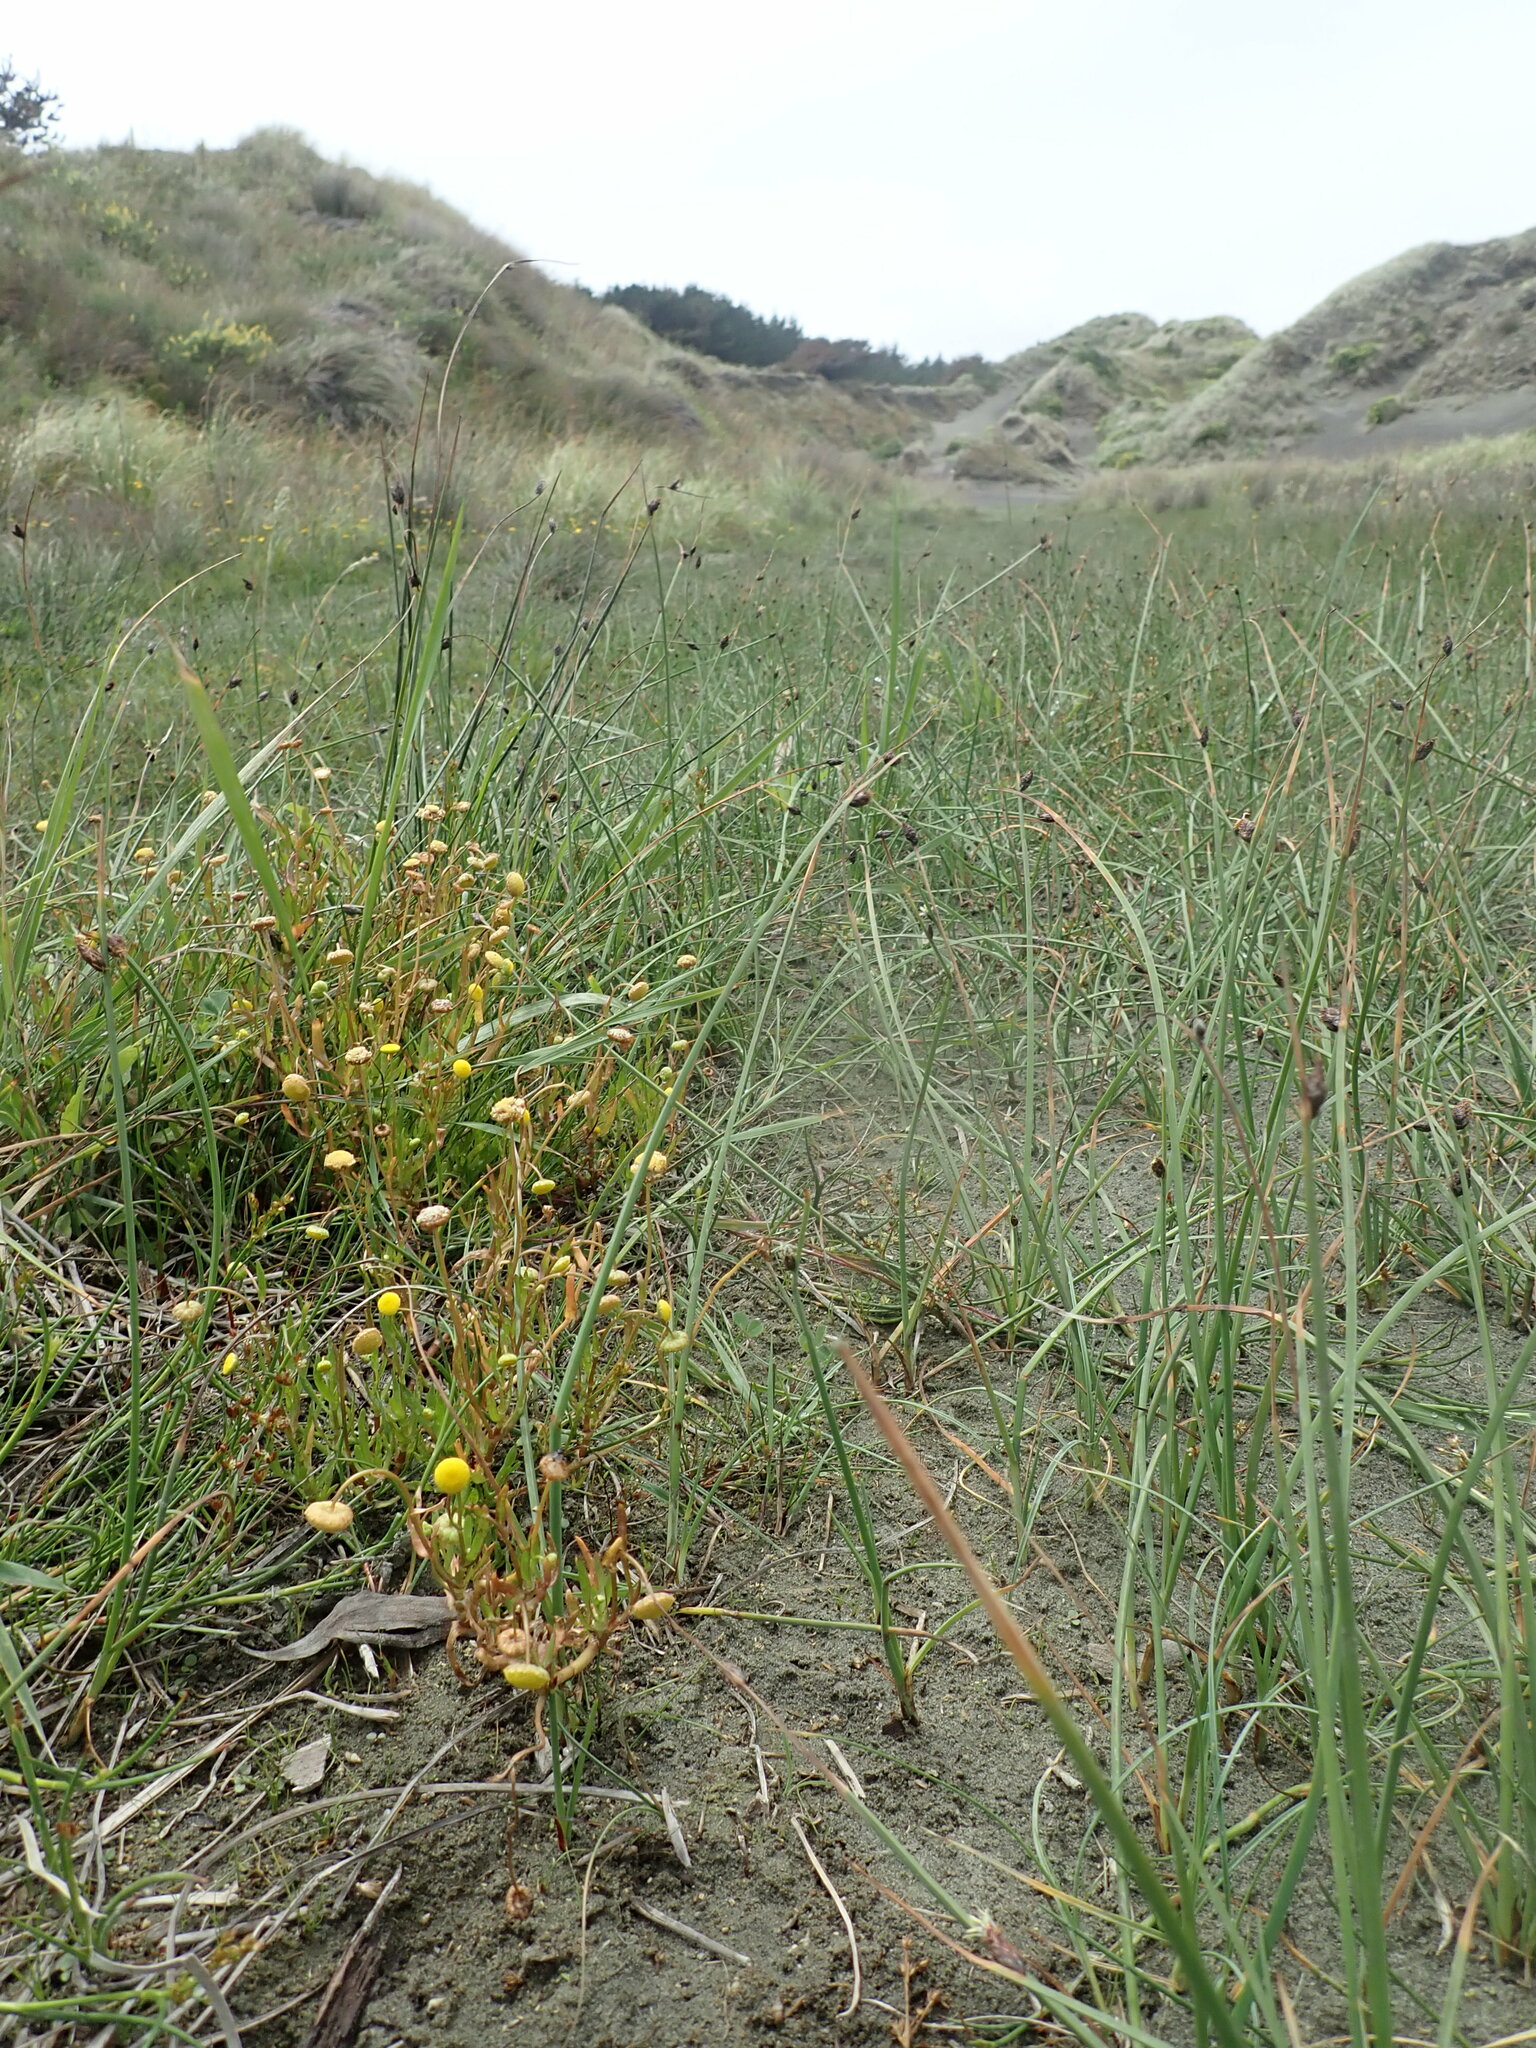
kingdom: Plantae
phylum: Tracheophyta
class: Magnoliopsida
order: Asterales
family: Asteraceae
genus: Cotula
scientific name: Cotula coronopifolia
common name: Buttonweed
